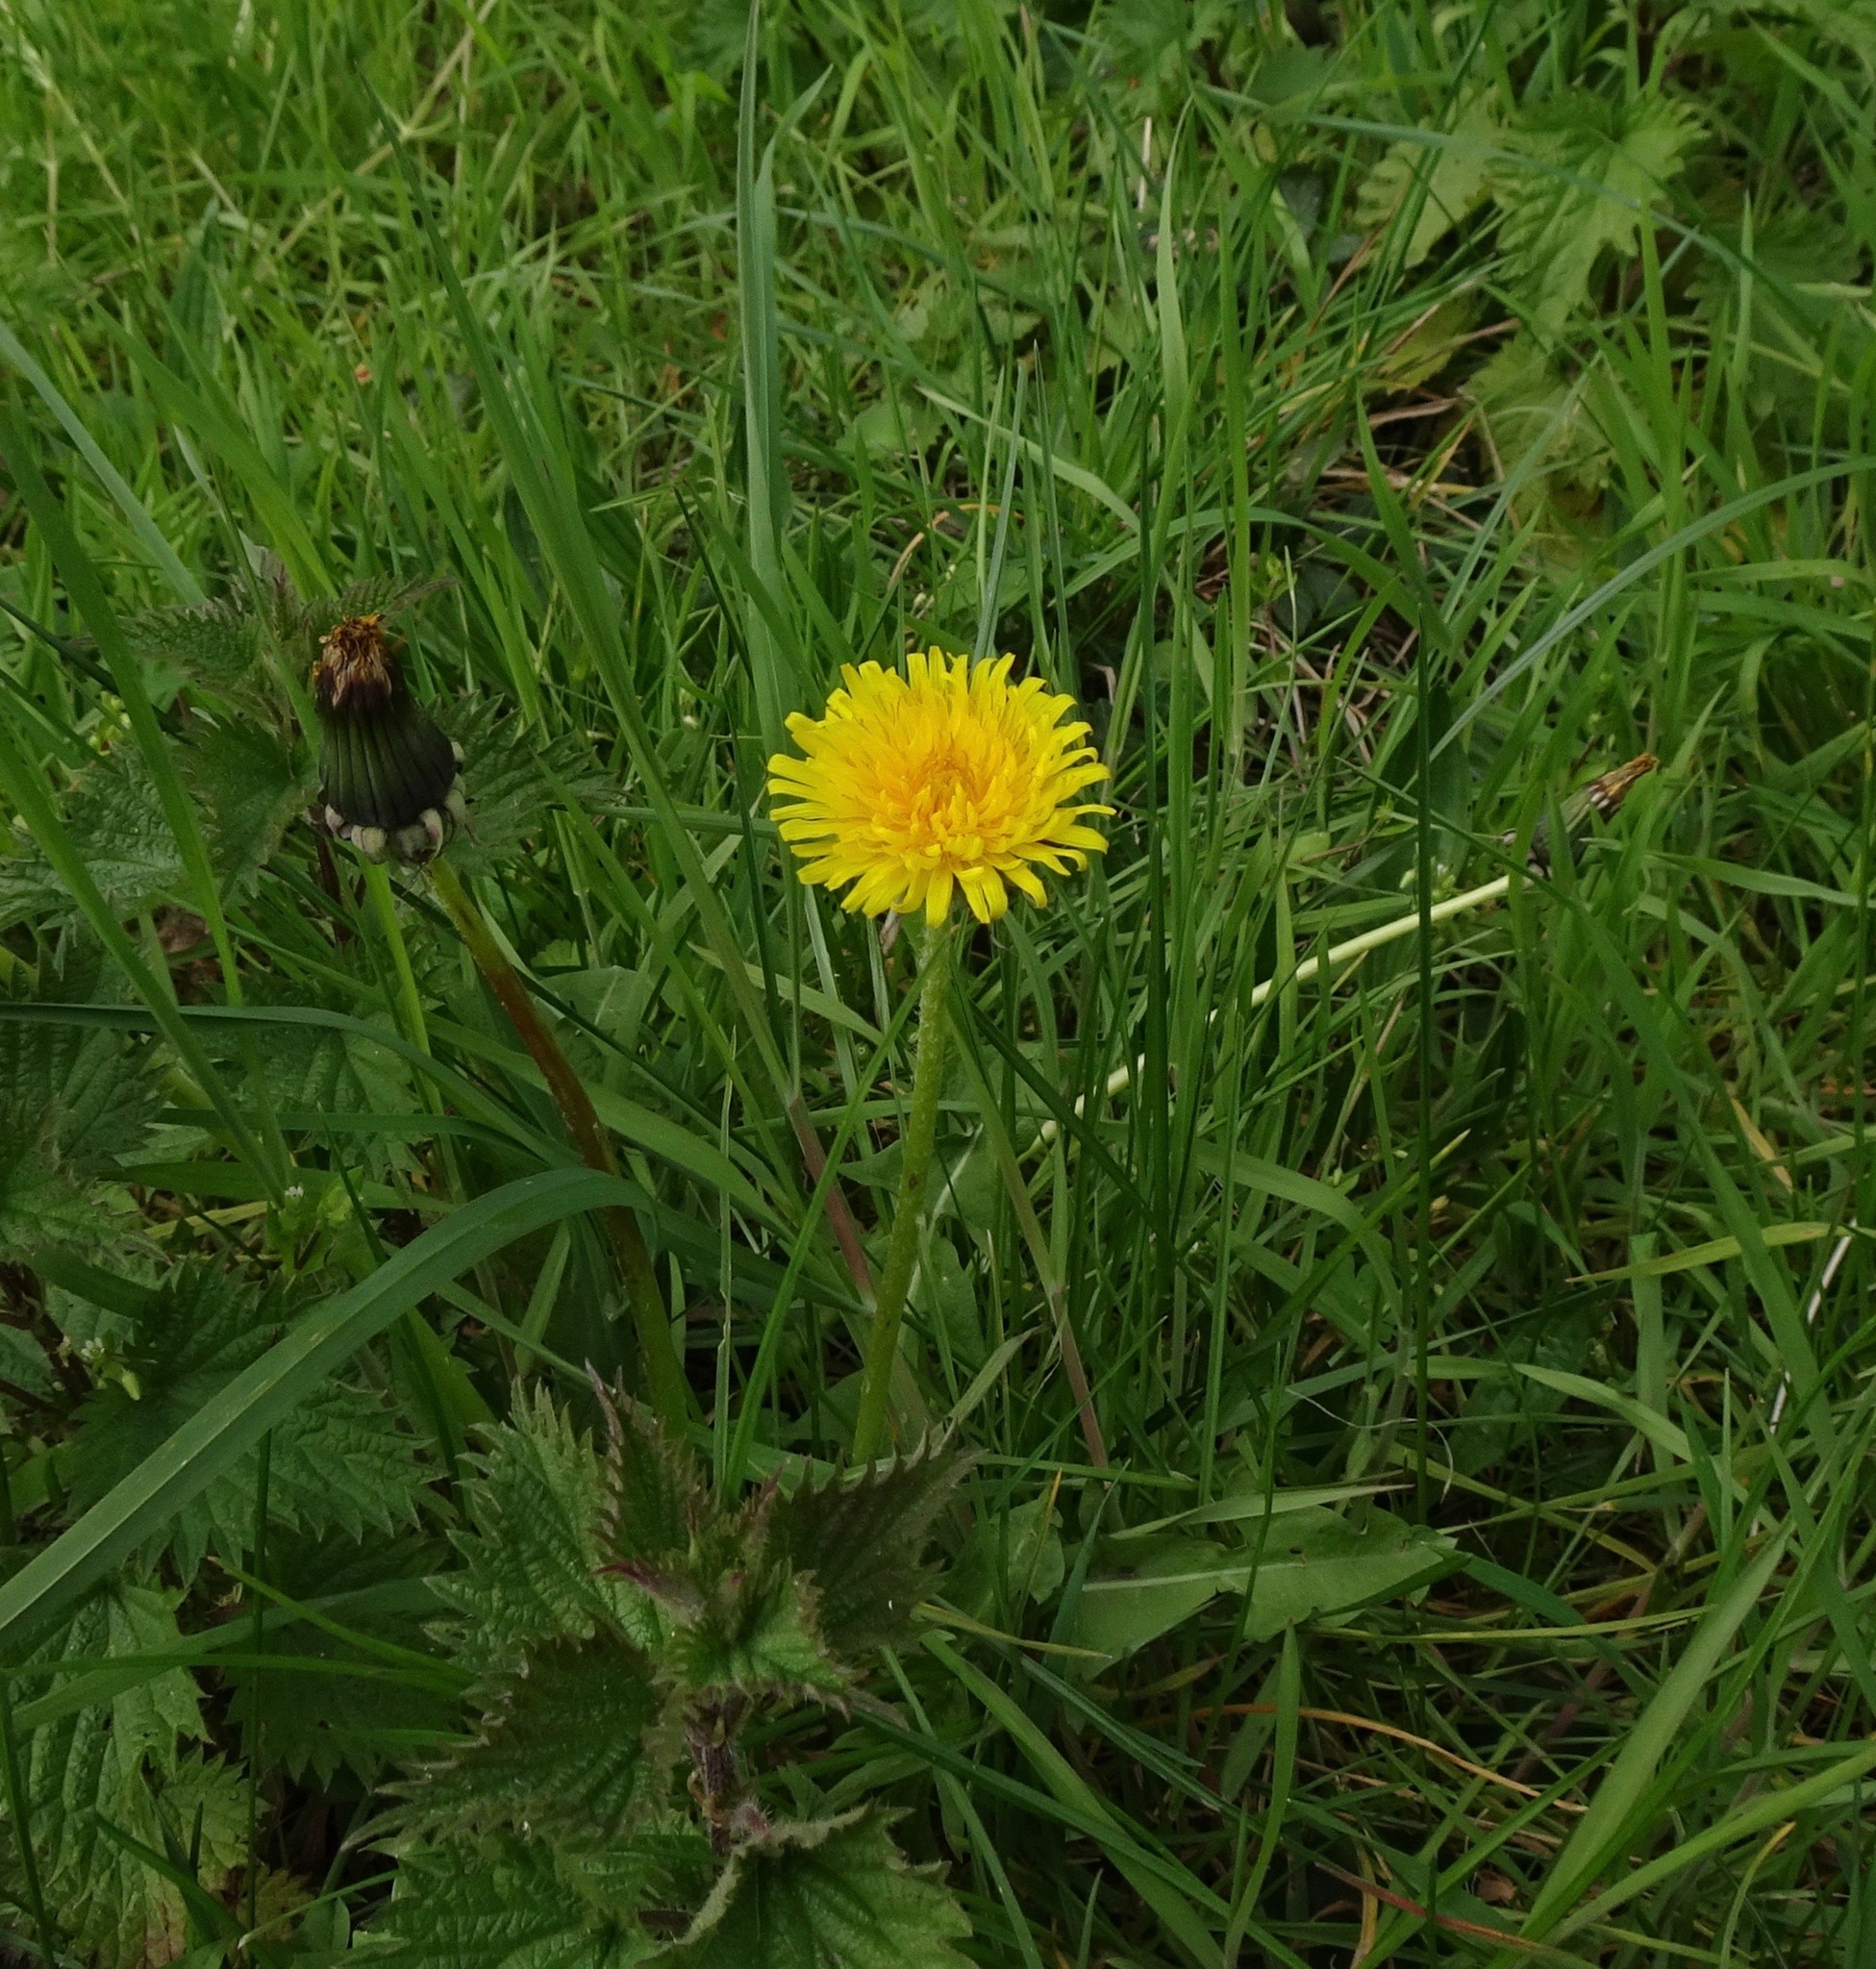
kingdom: Plantae
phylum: Tracheophyta
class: Magnoliopsida
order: Asterales
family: Asteraceae
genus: Taraxacum
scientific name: Taraxacum officinale
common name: Common dandelion
